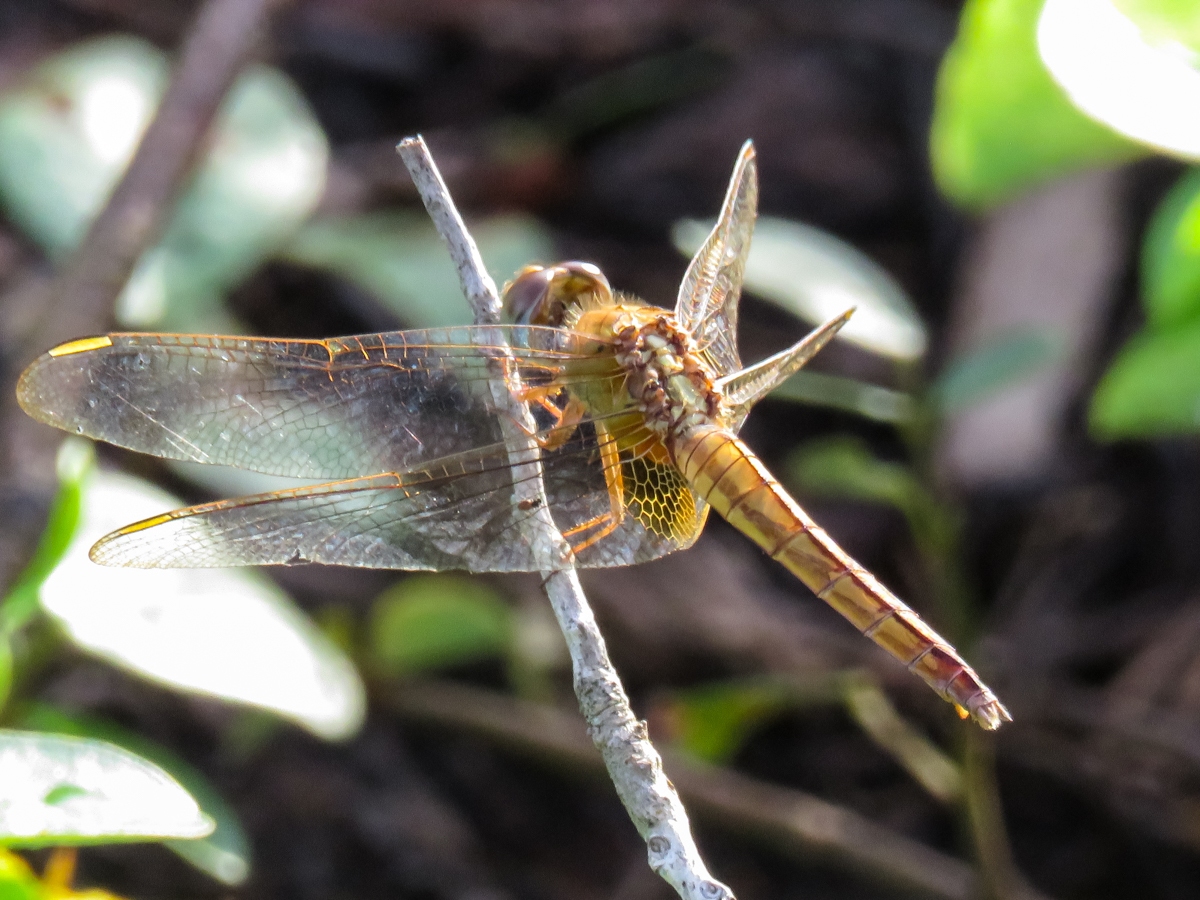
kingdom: Animalia
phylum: Arthropoda
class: Insecta
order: Odonata
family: Libellulidae
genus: Crocothemis
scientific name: Crocothemis servilia
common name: Scarlet skimmer
